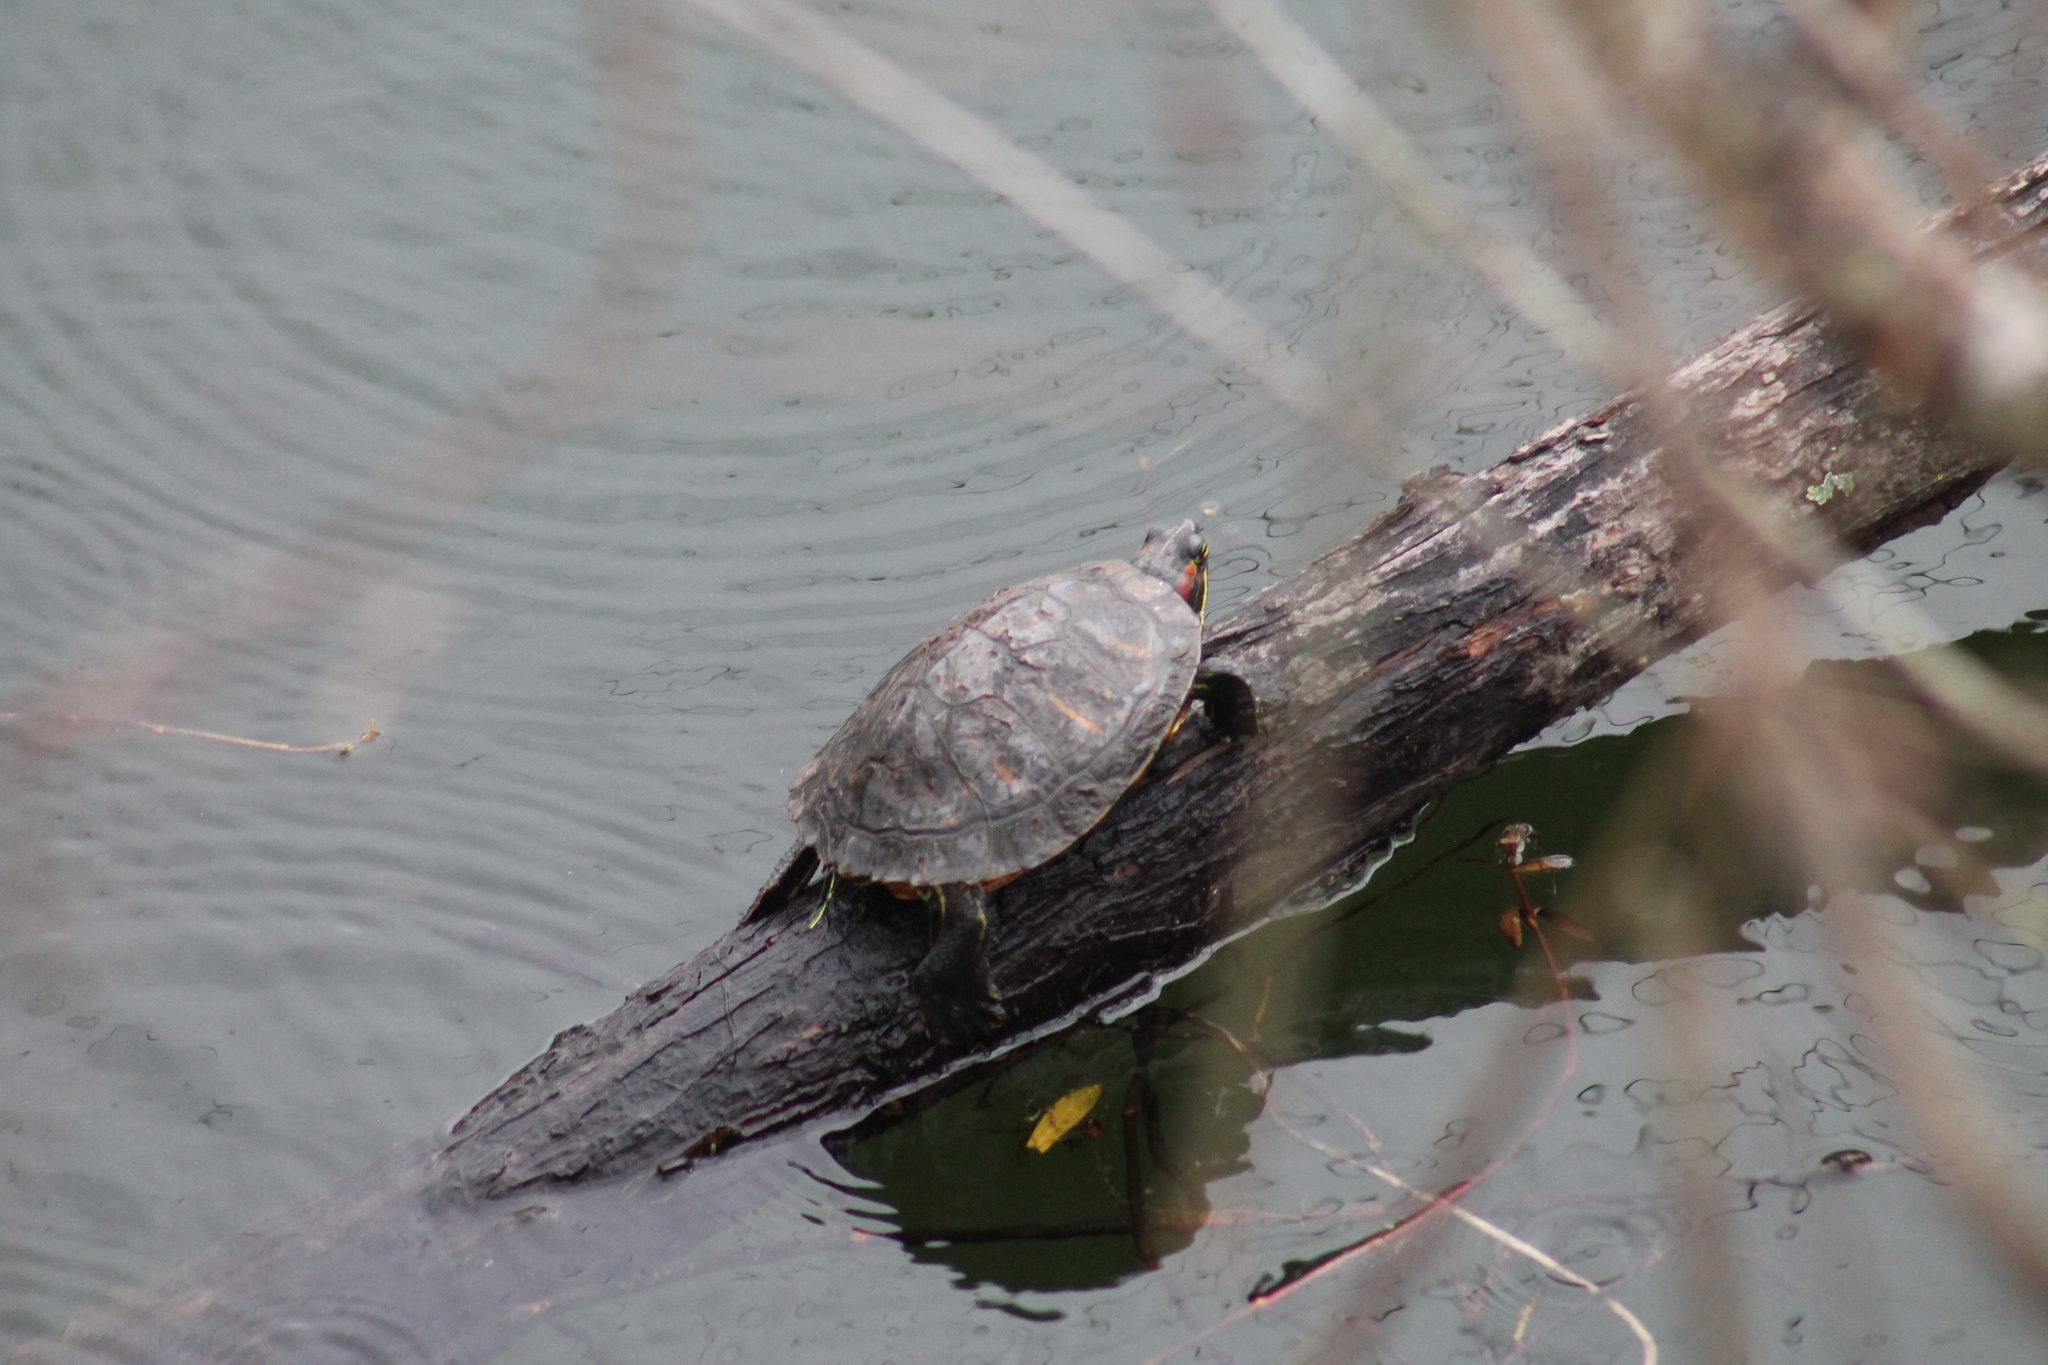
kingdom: Animalia
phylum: Chordata
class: Testudines
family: Emydidae
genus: Trachemys
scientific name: Trachemys scripta
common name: Slider
